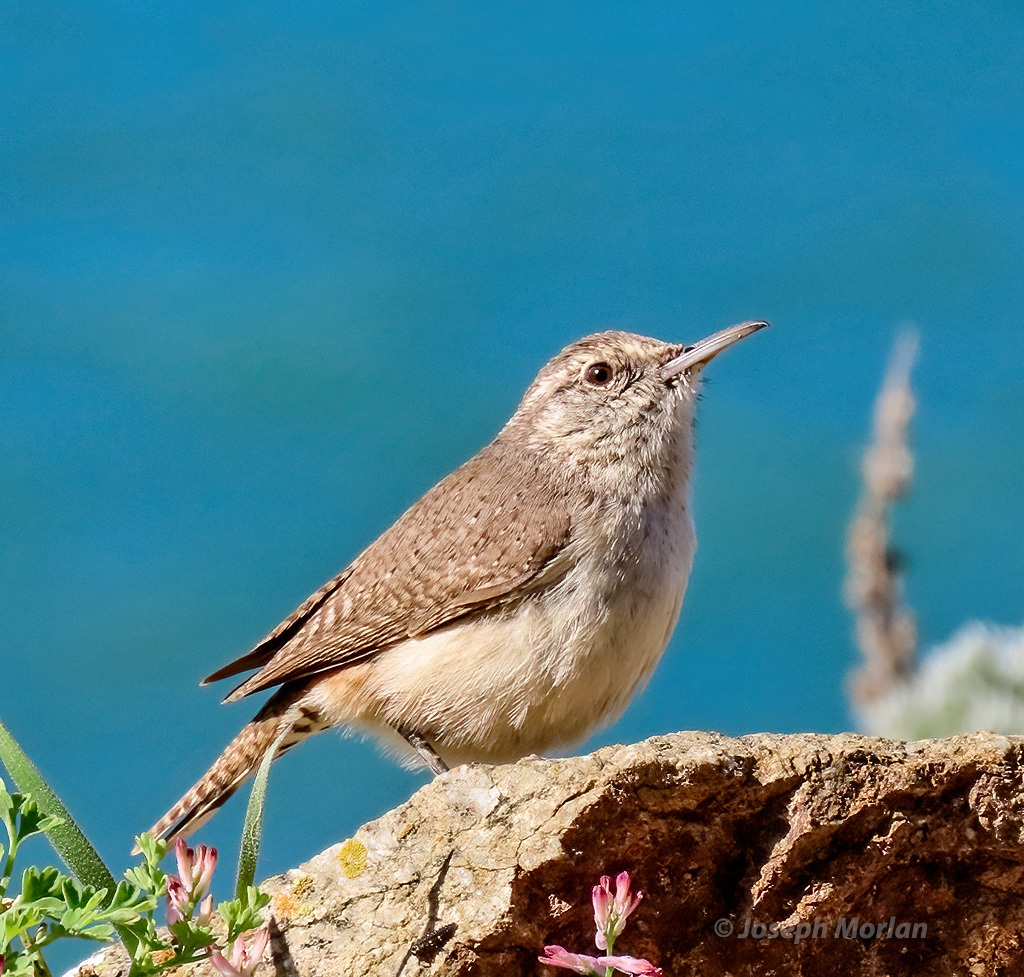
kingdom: Animalia
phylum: Chordata
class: Aves
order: Passeriformes
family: Troglodytidae
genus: Salpinctes
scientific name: Salpinctes obsoletus
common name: Rock wren
